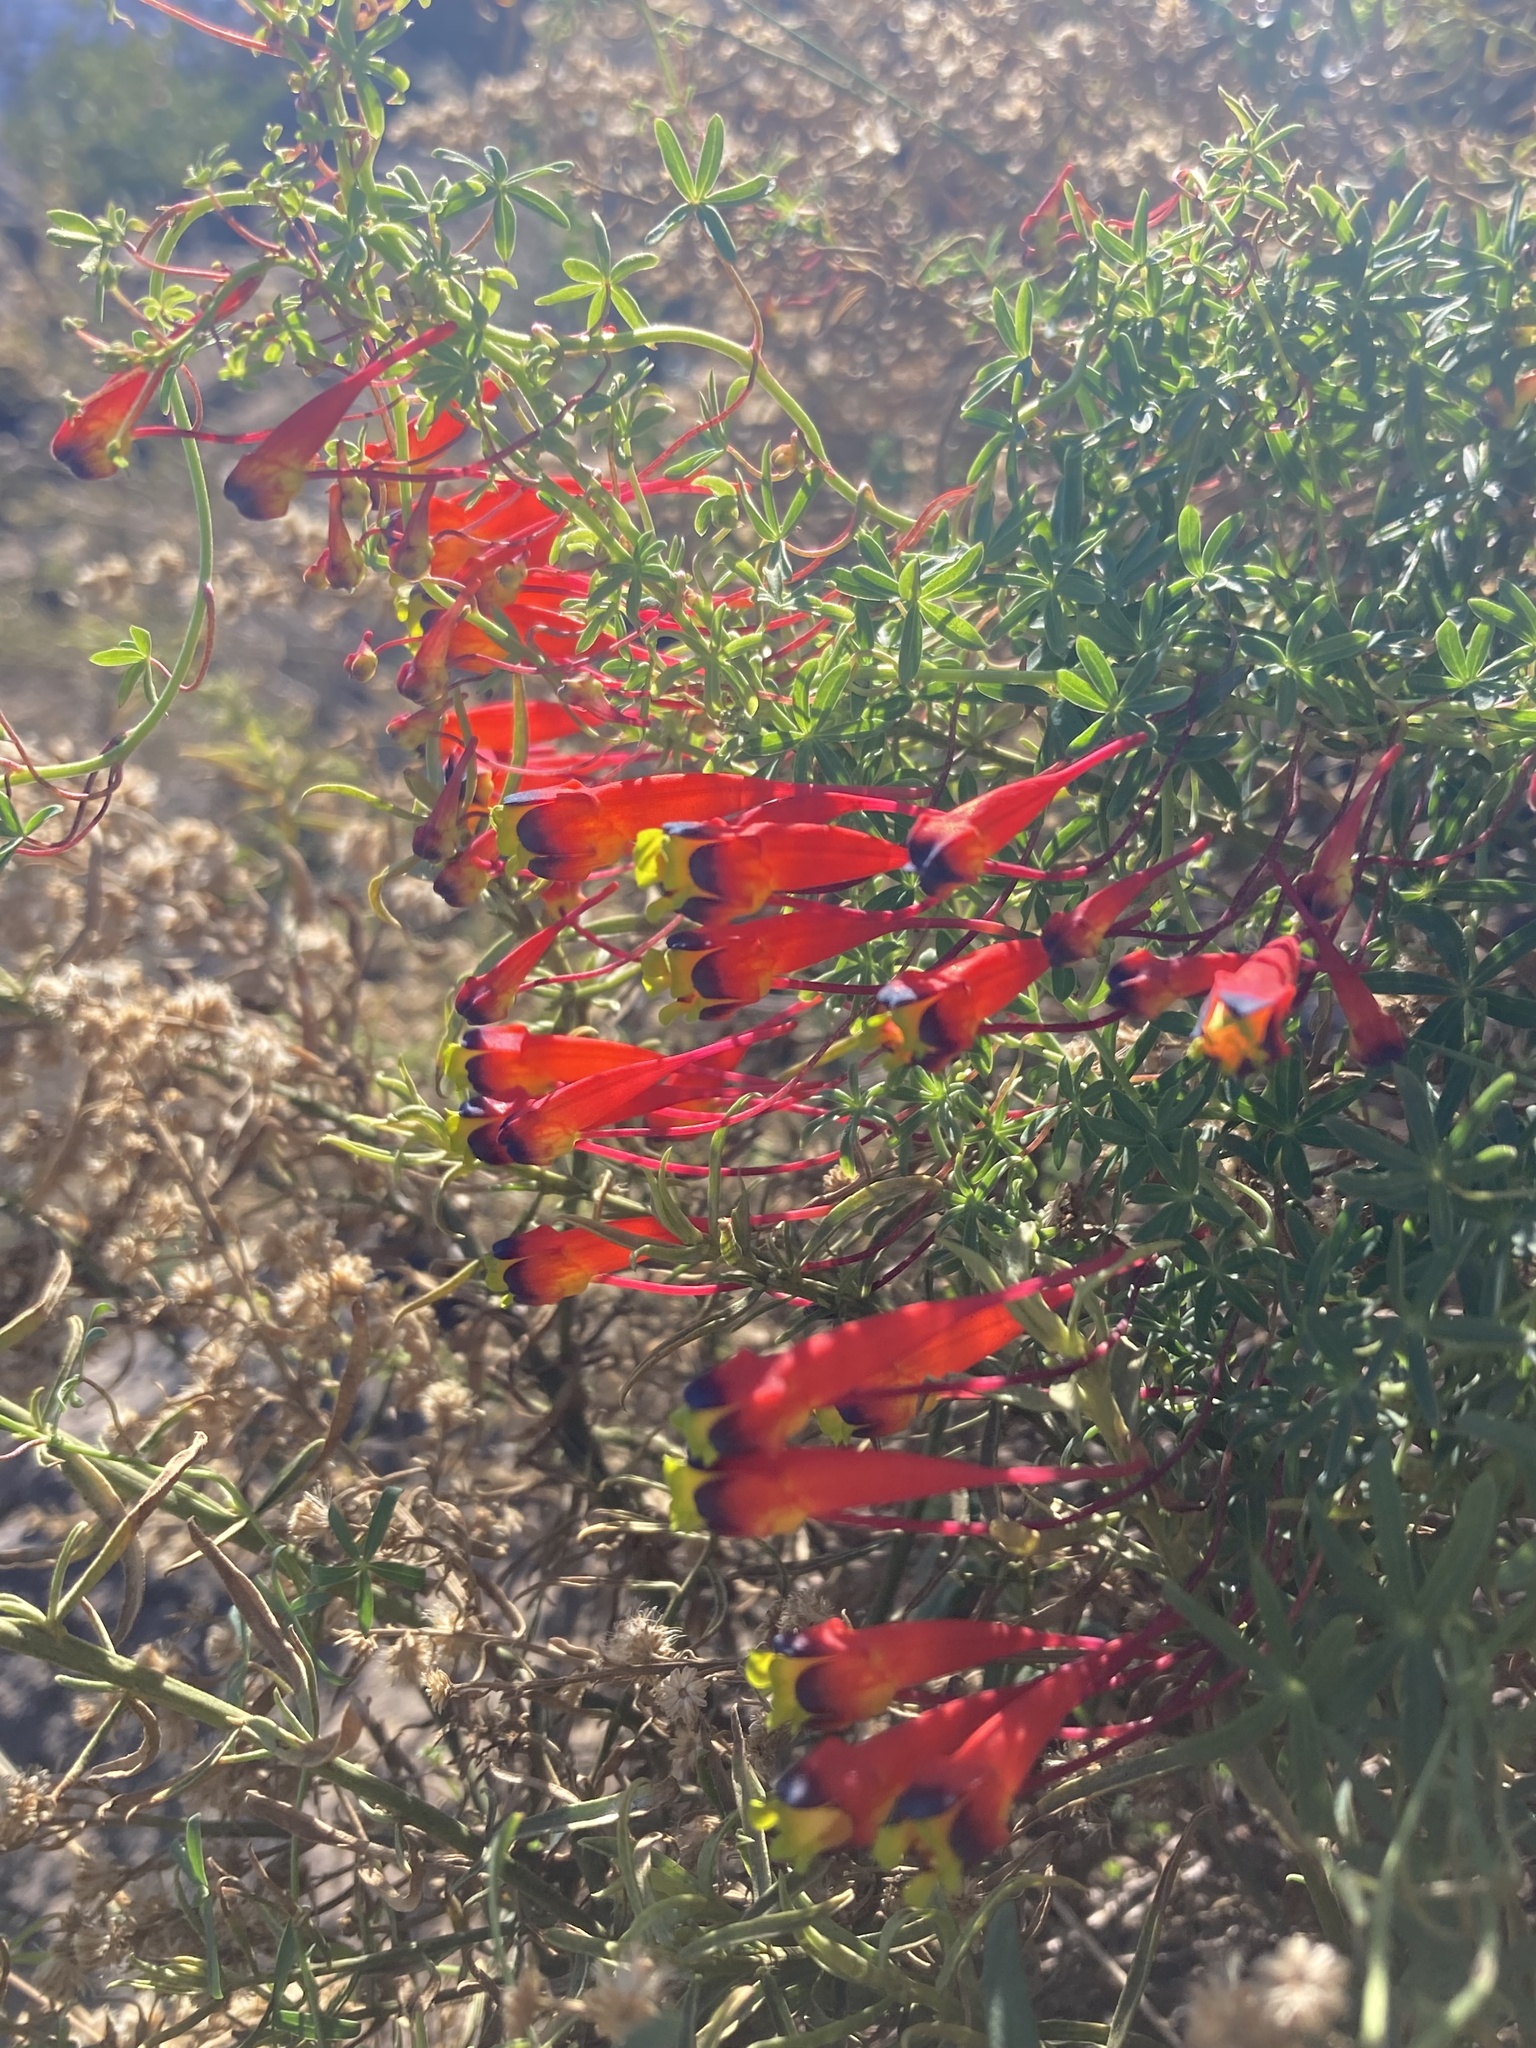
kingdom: Plantae
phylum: Tracheophyta
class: Magnoliopsida
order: Brassicales
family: Tropaeolaceae
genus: Tropaeolum
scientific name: Tropaeolum tricolor
